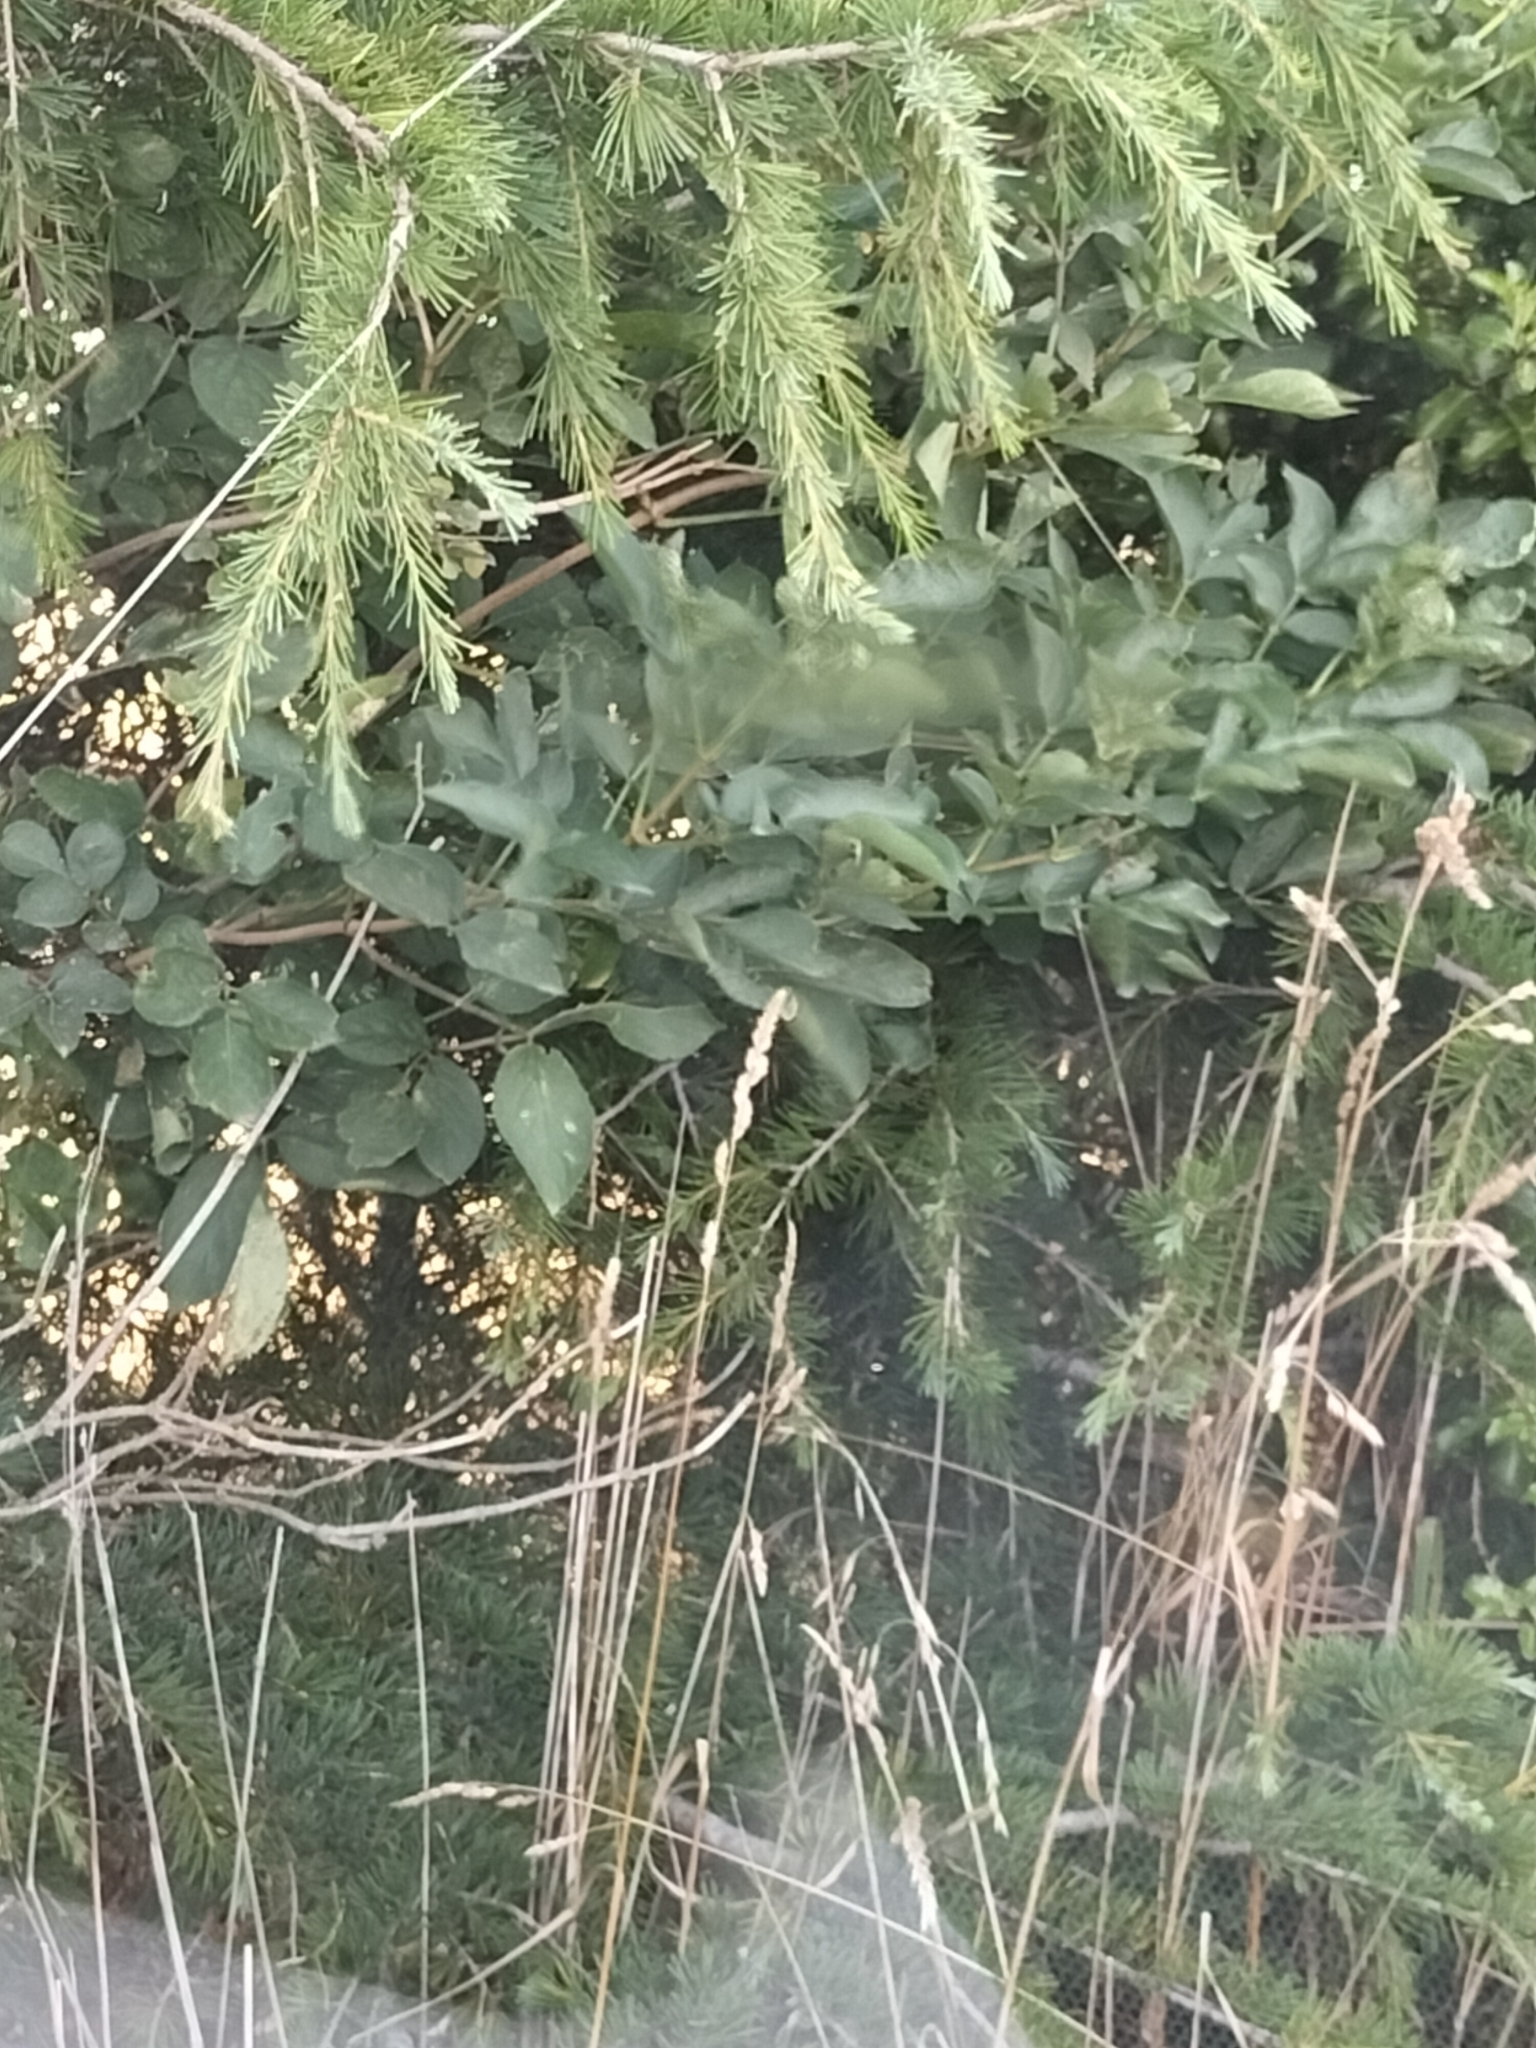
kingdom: Plantae
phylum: Tracheophyta
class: Magnoliopsida
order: Dipsacales
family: Viburnaceae
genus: Sambucus
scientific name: Sambucus nigra
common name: Elder
